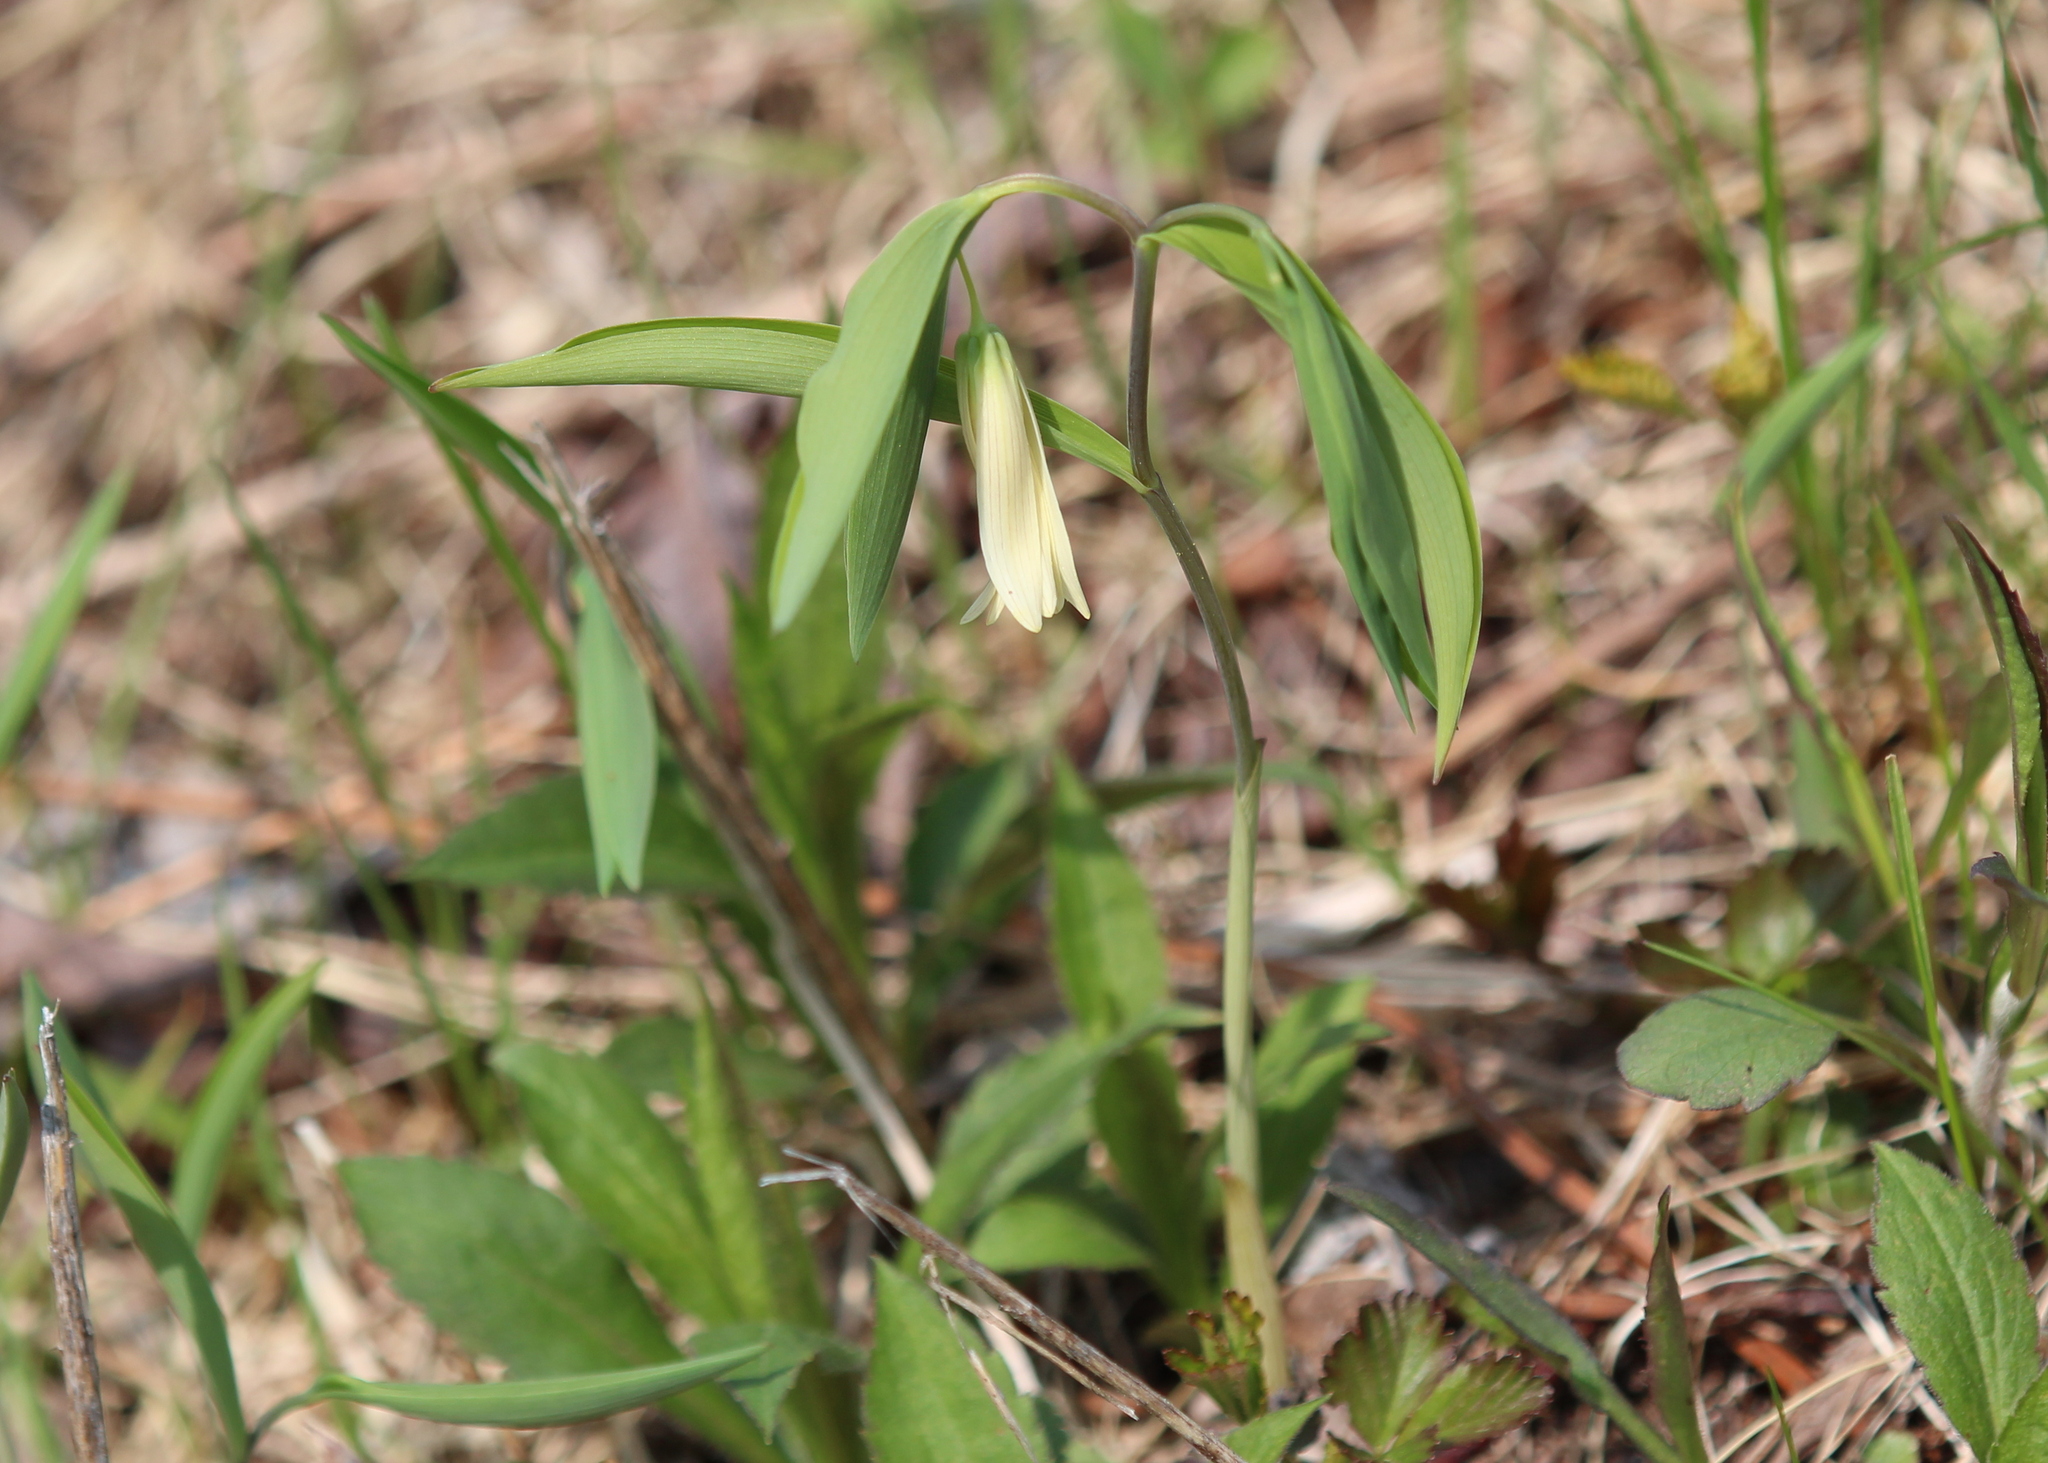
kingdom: Plantae
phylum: Tracheophyta
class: Liliopsida
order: Liliales
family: Colchicaceae
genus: Uvularia
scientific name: Uvularia sessilifolia
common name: Straw-lily
